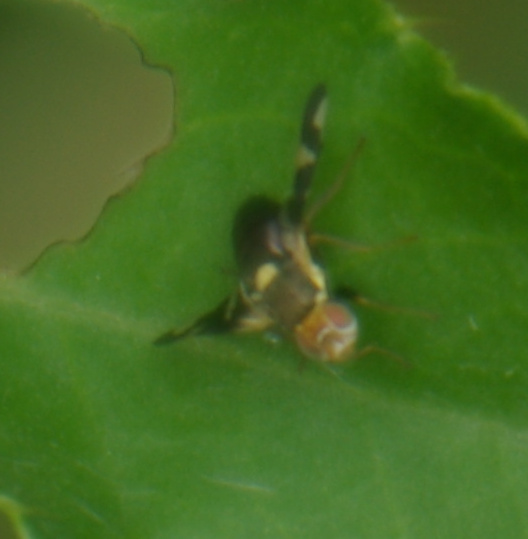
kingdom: Animalia
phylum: Arthropoda
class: Insecta
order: Diptera
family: Tephritidae
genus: Urophora
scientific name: Urophora cardui
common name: Fruit fly
